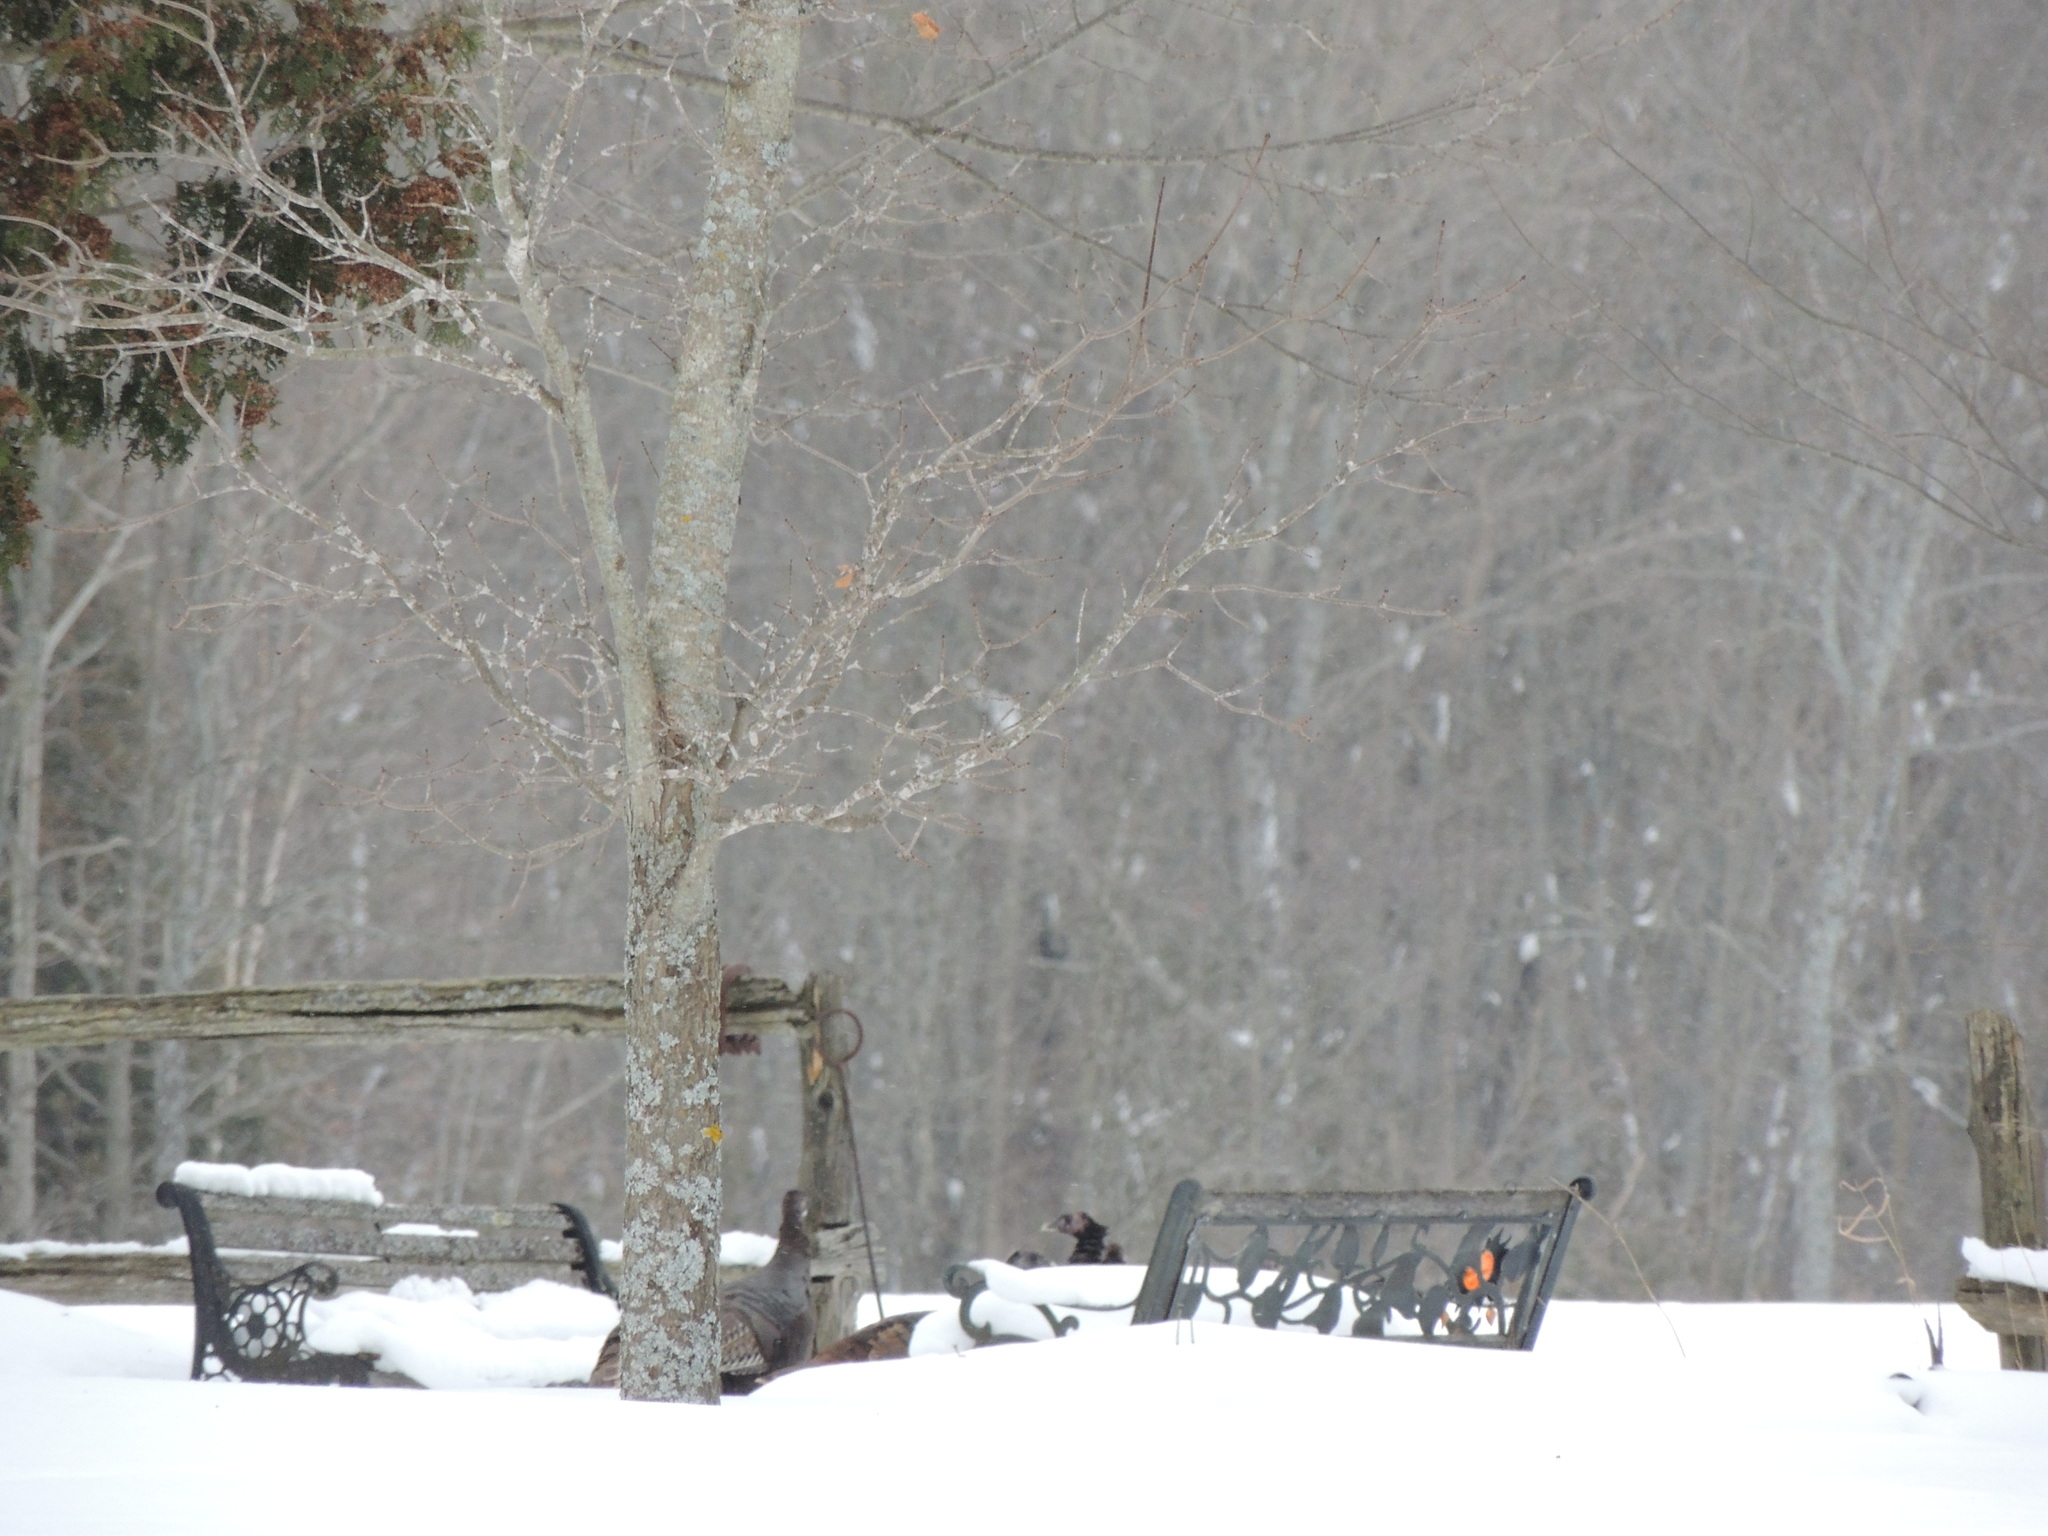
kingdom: Animalia
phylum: Chordata
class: Aves
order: Galliformes
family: Phasianidae
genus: Meleagris
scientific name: Meleagris gallopavo
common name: Wild turkey
